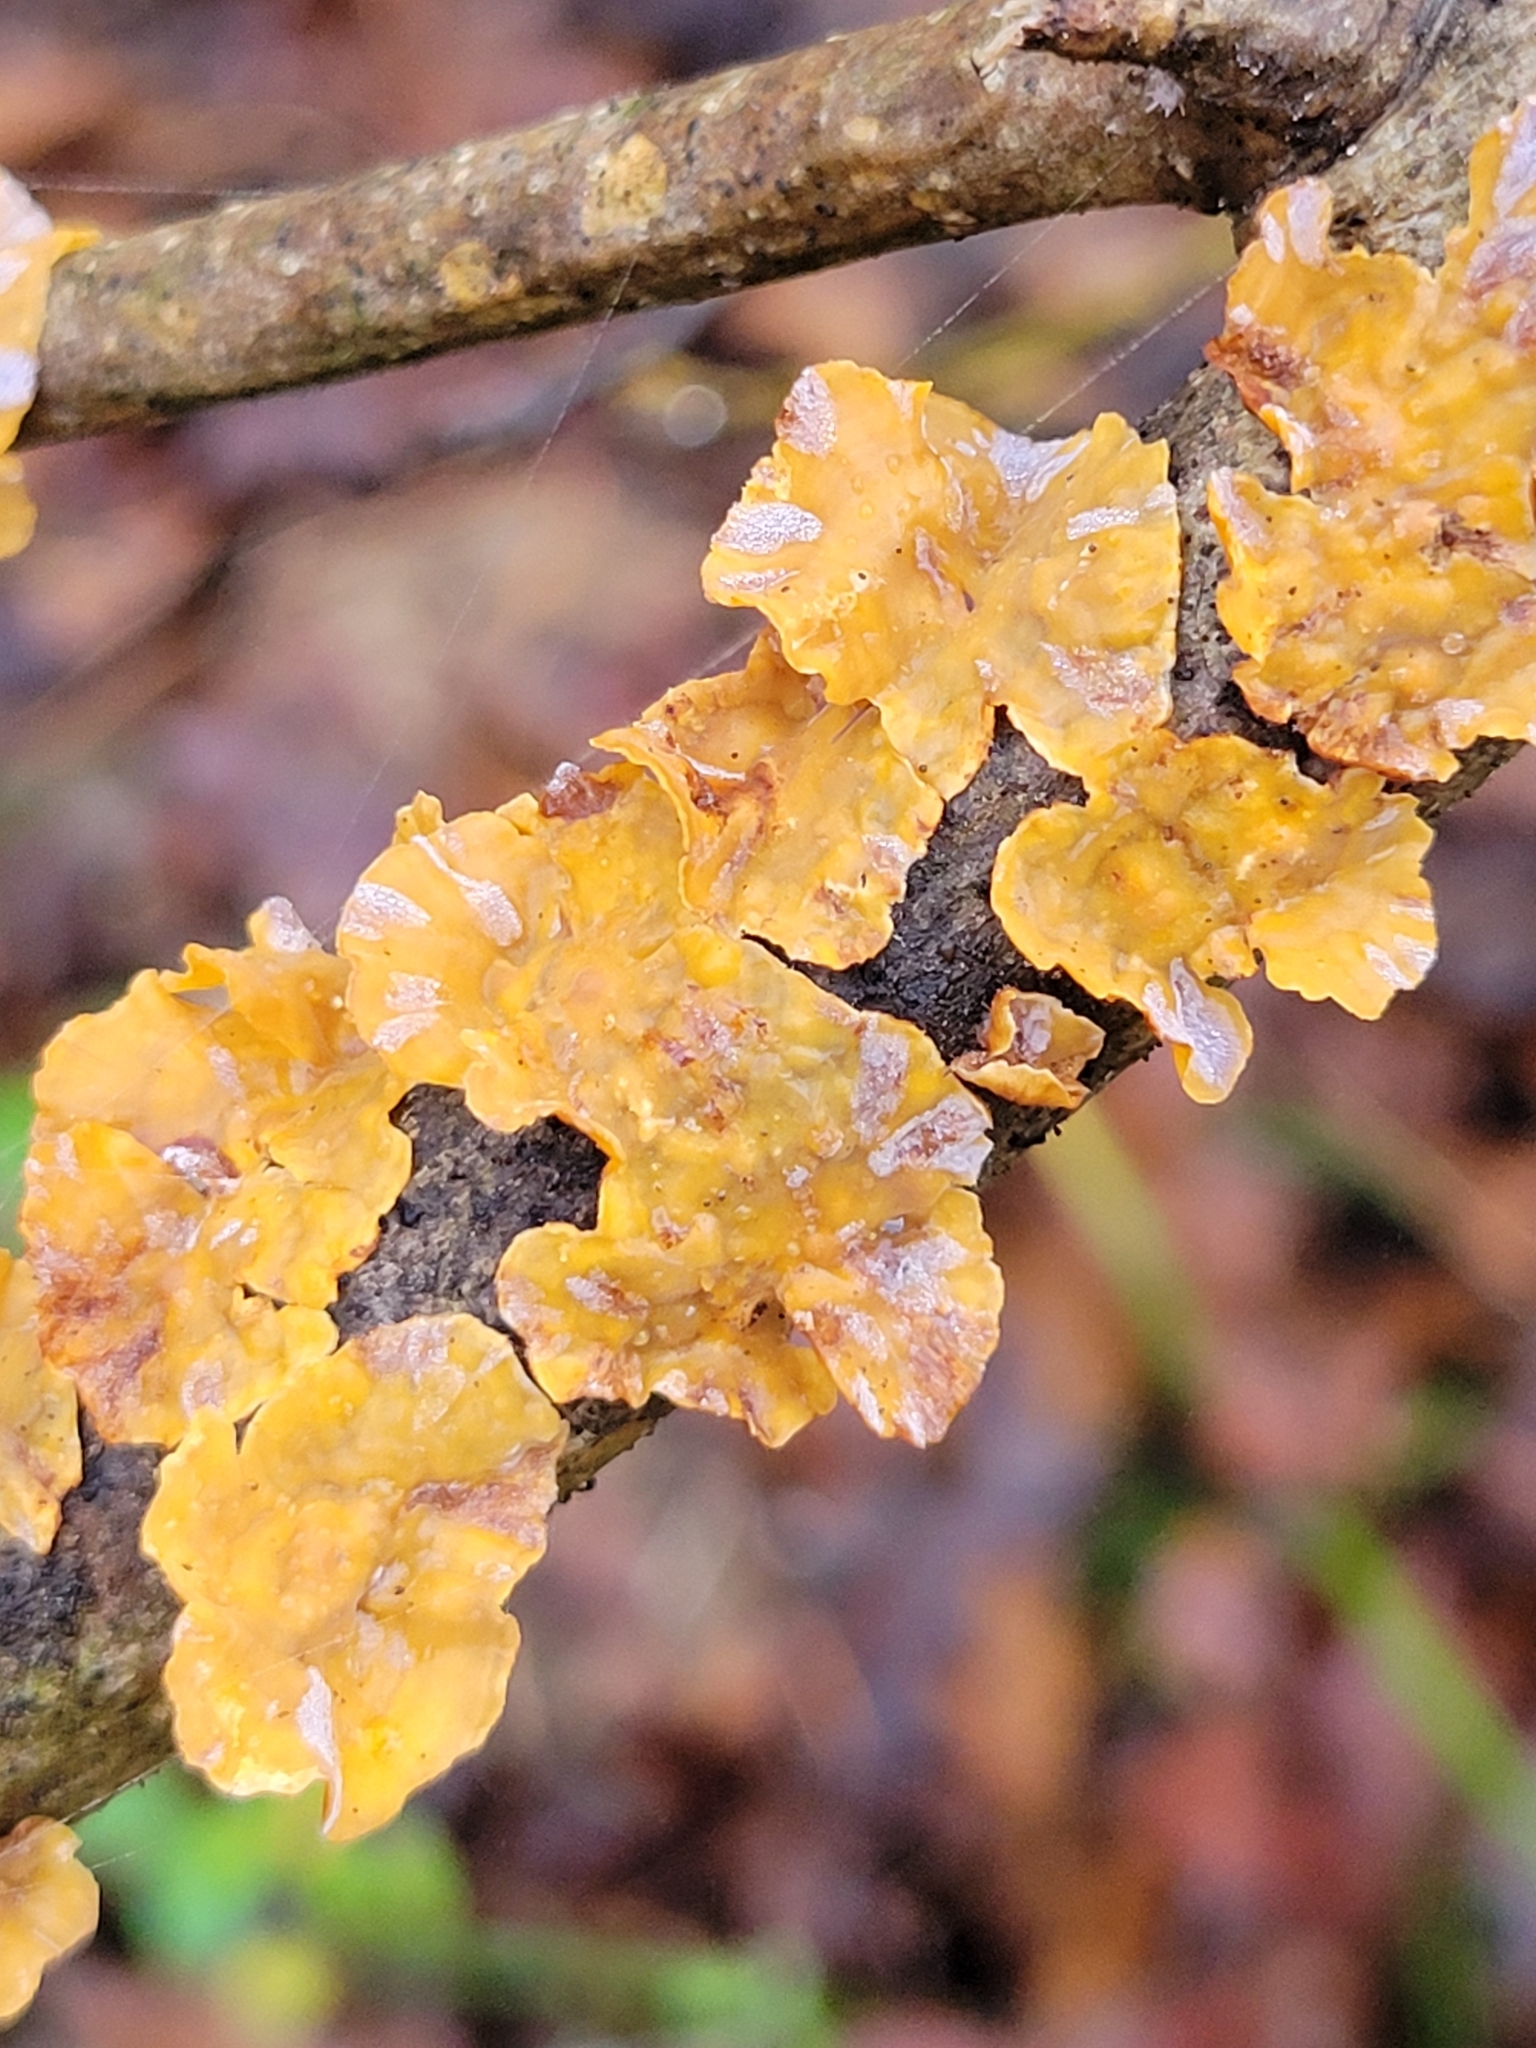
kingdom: Fungi
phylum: Basidiomycota
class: Agaricomycetes
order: Russulales
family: Stereaceae
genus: Stereum
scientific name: Stereum complicatum
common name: Crowded parchment
